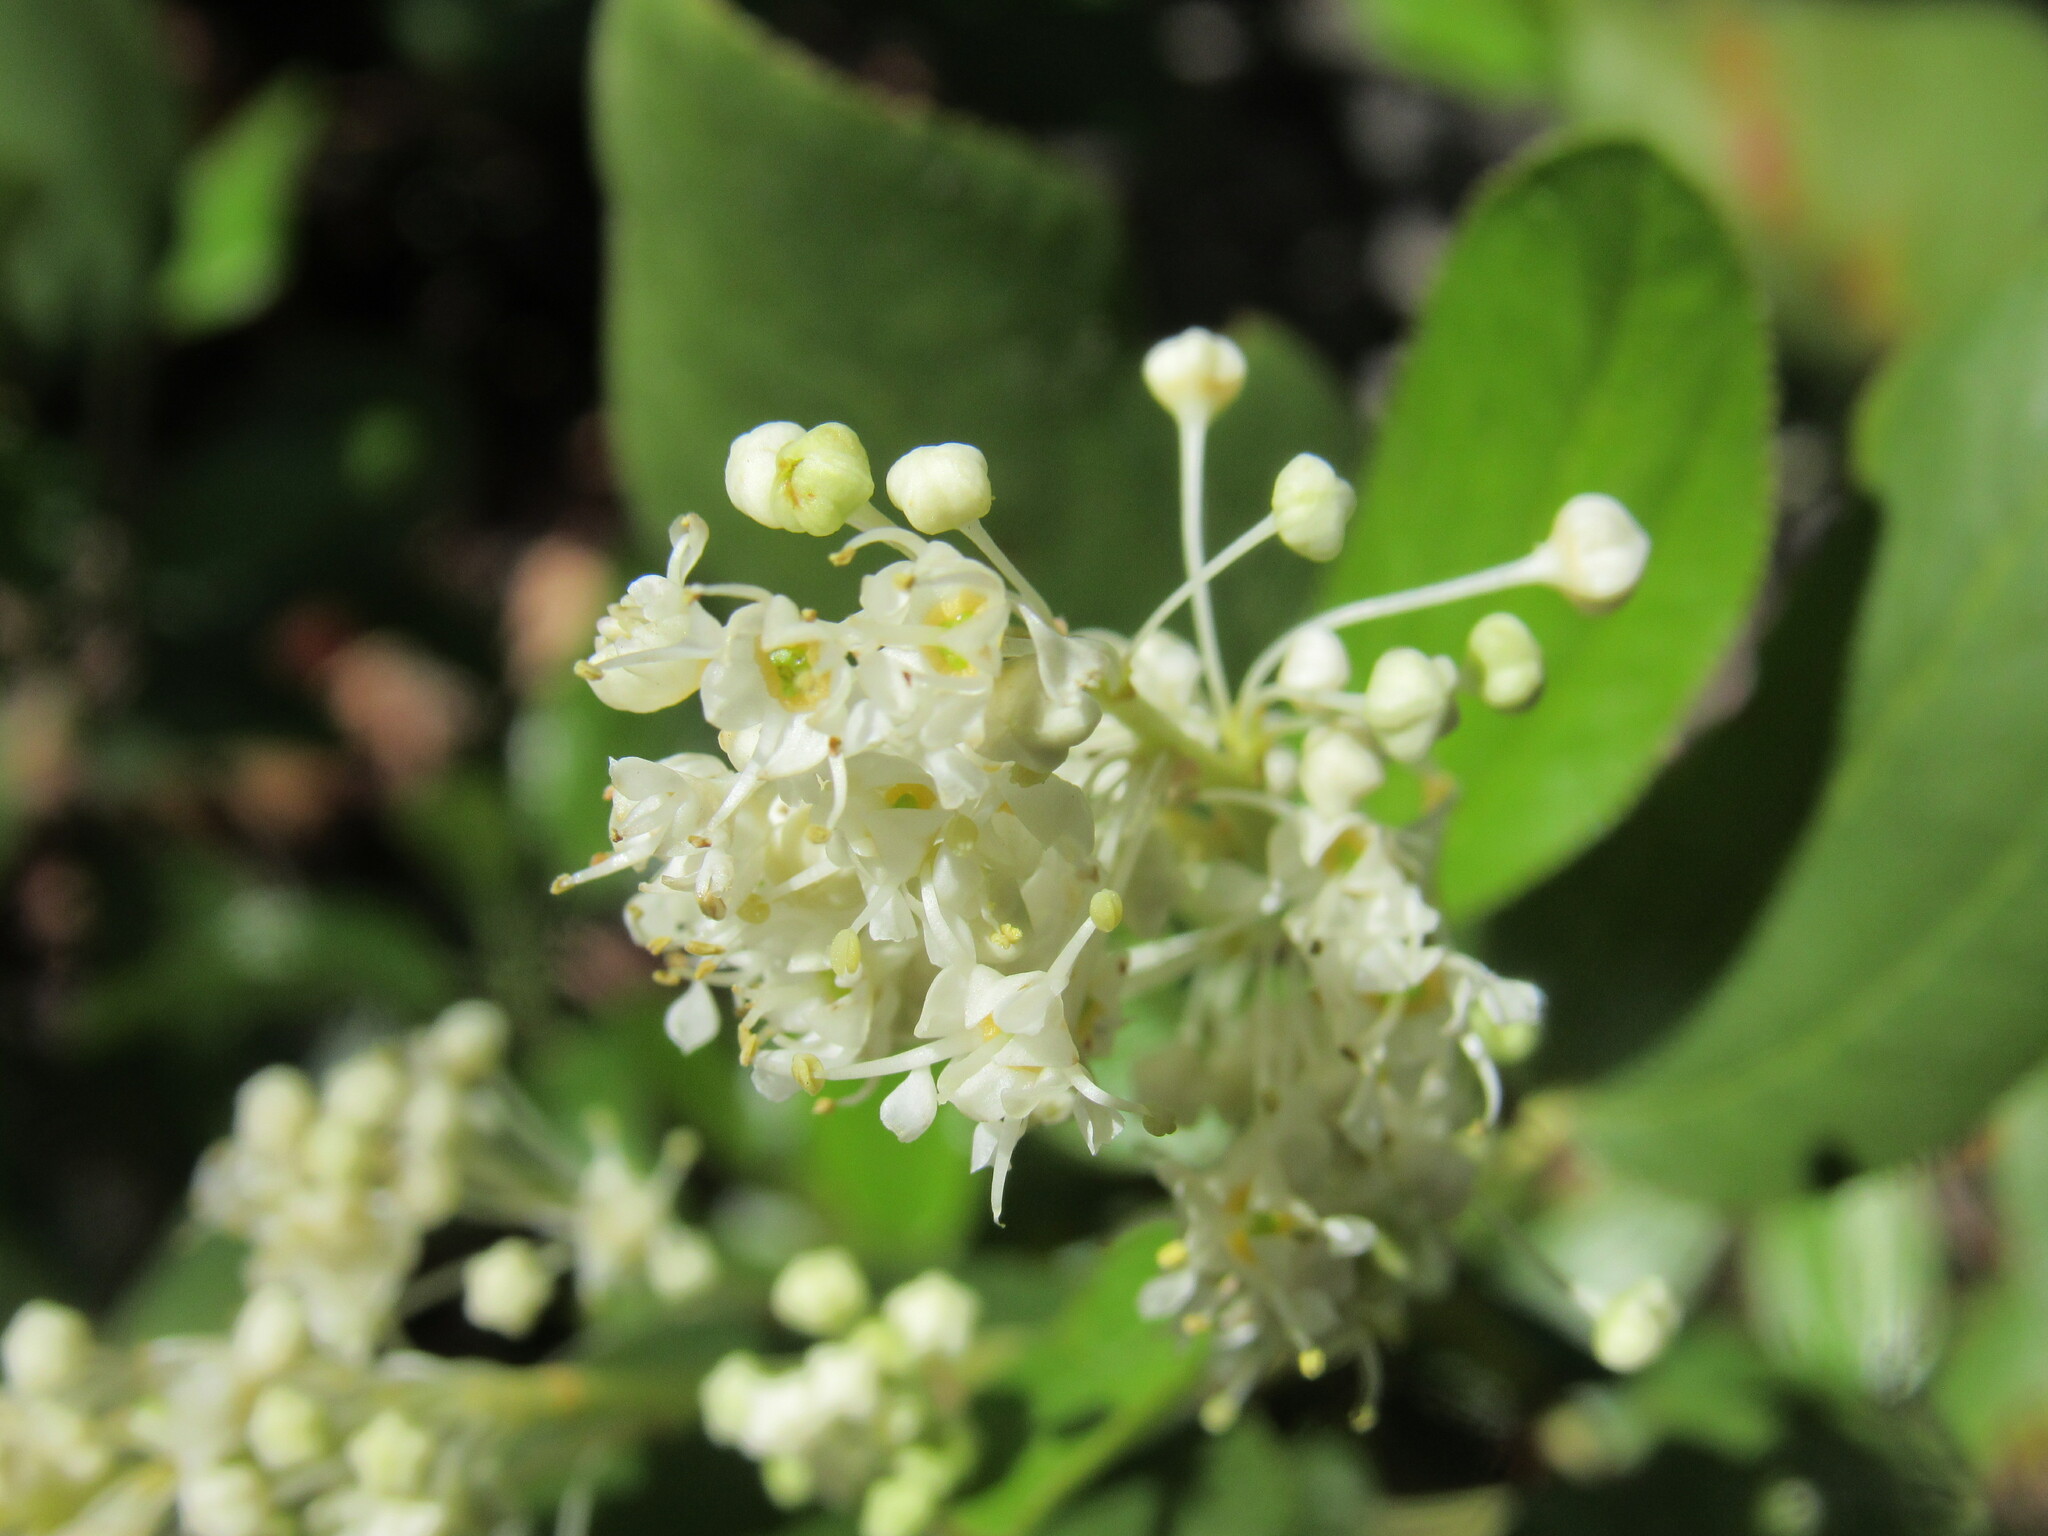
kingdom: Plantae
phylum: Tracheophyta
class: Magnoliopsida
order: Rosales
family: Rhamnaceae
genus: Ceanothus
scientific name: Ceanothus velutinus
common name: Snowbrush
